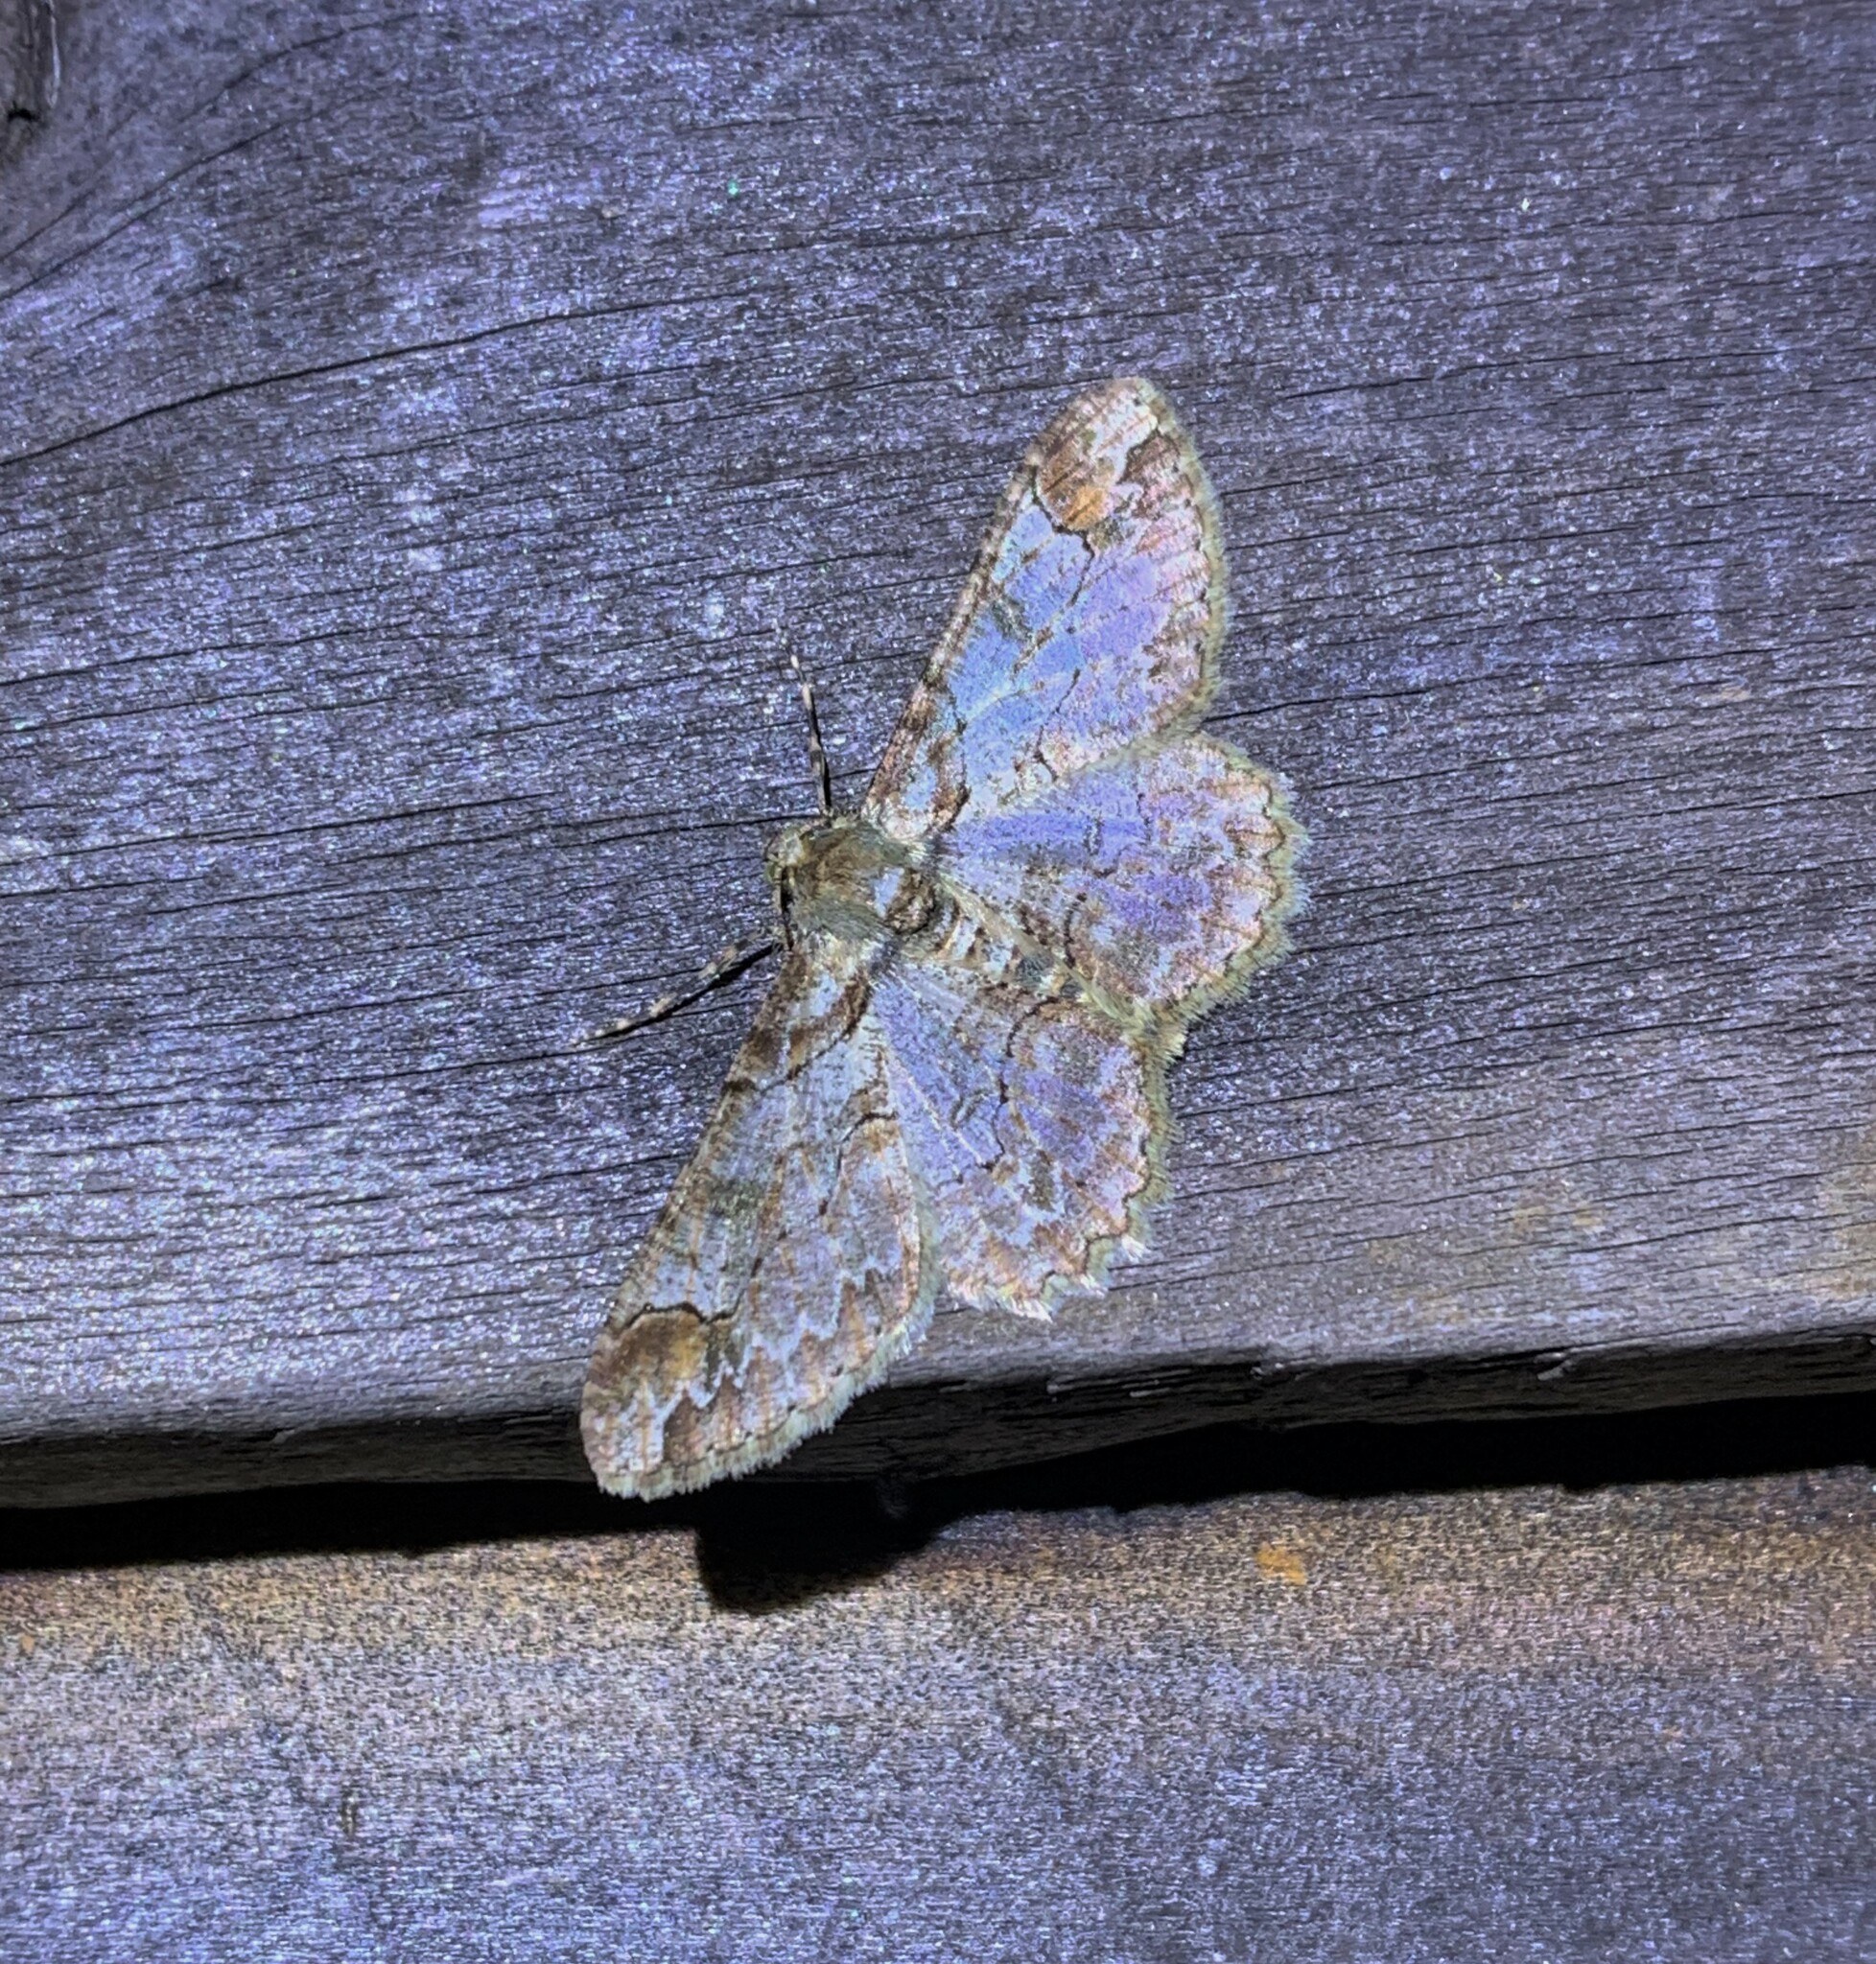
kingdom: Animalia
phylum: Arthropoda
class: Insecta
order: Lepidoptera
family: Geometridae
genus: Iridopsis
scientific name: Iridopsis emasculatum
